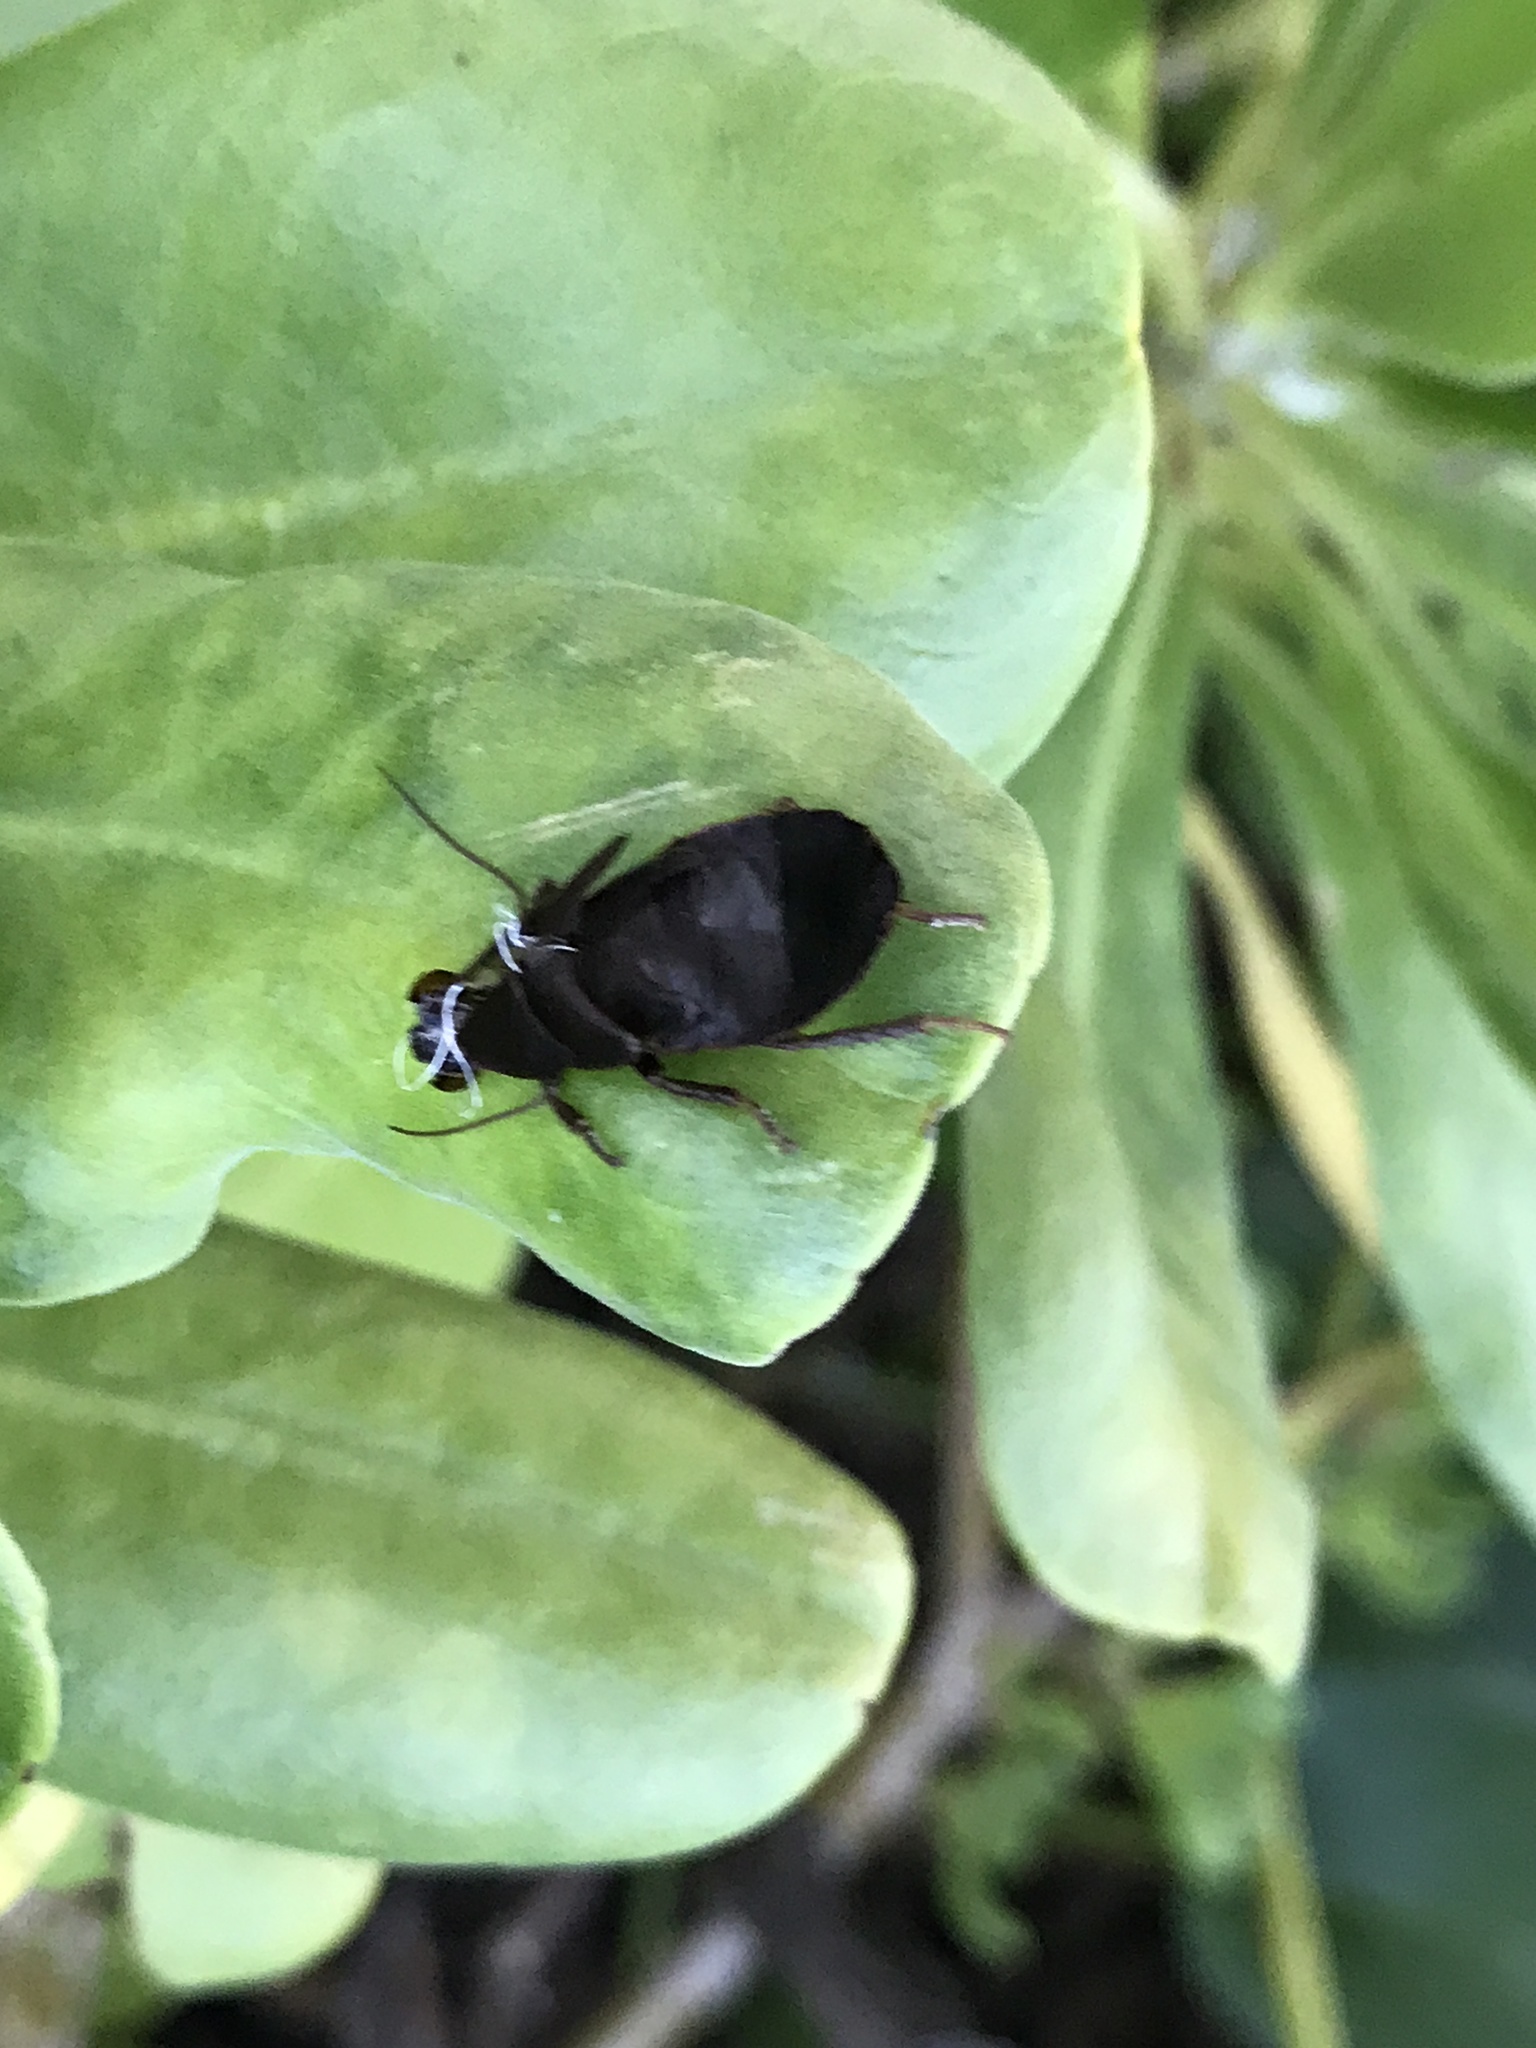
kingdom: Animalia
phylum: Arthropoda
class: Insecta
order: Blattodea
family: Blaberidae
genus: Diploptera
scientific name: Diploptera punctata
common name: Pacific beetle cockroach
